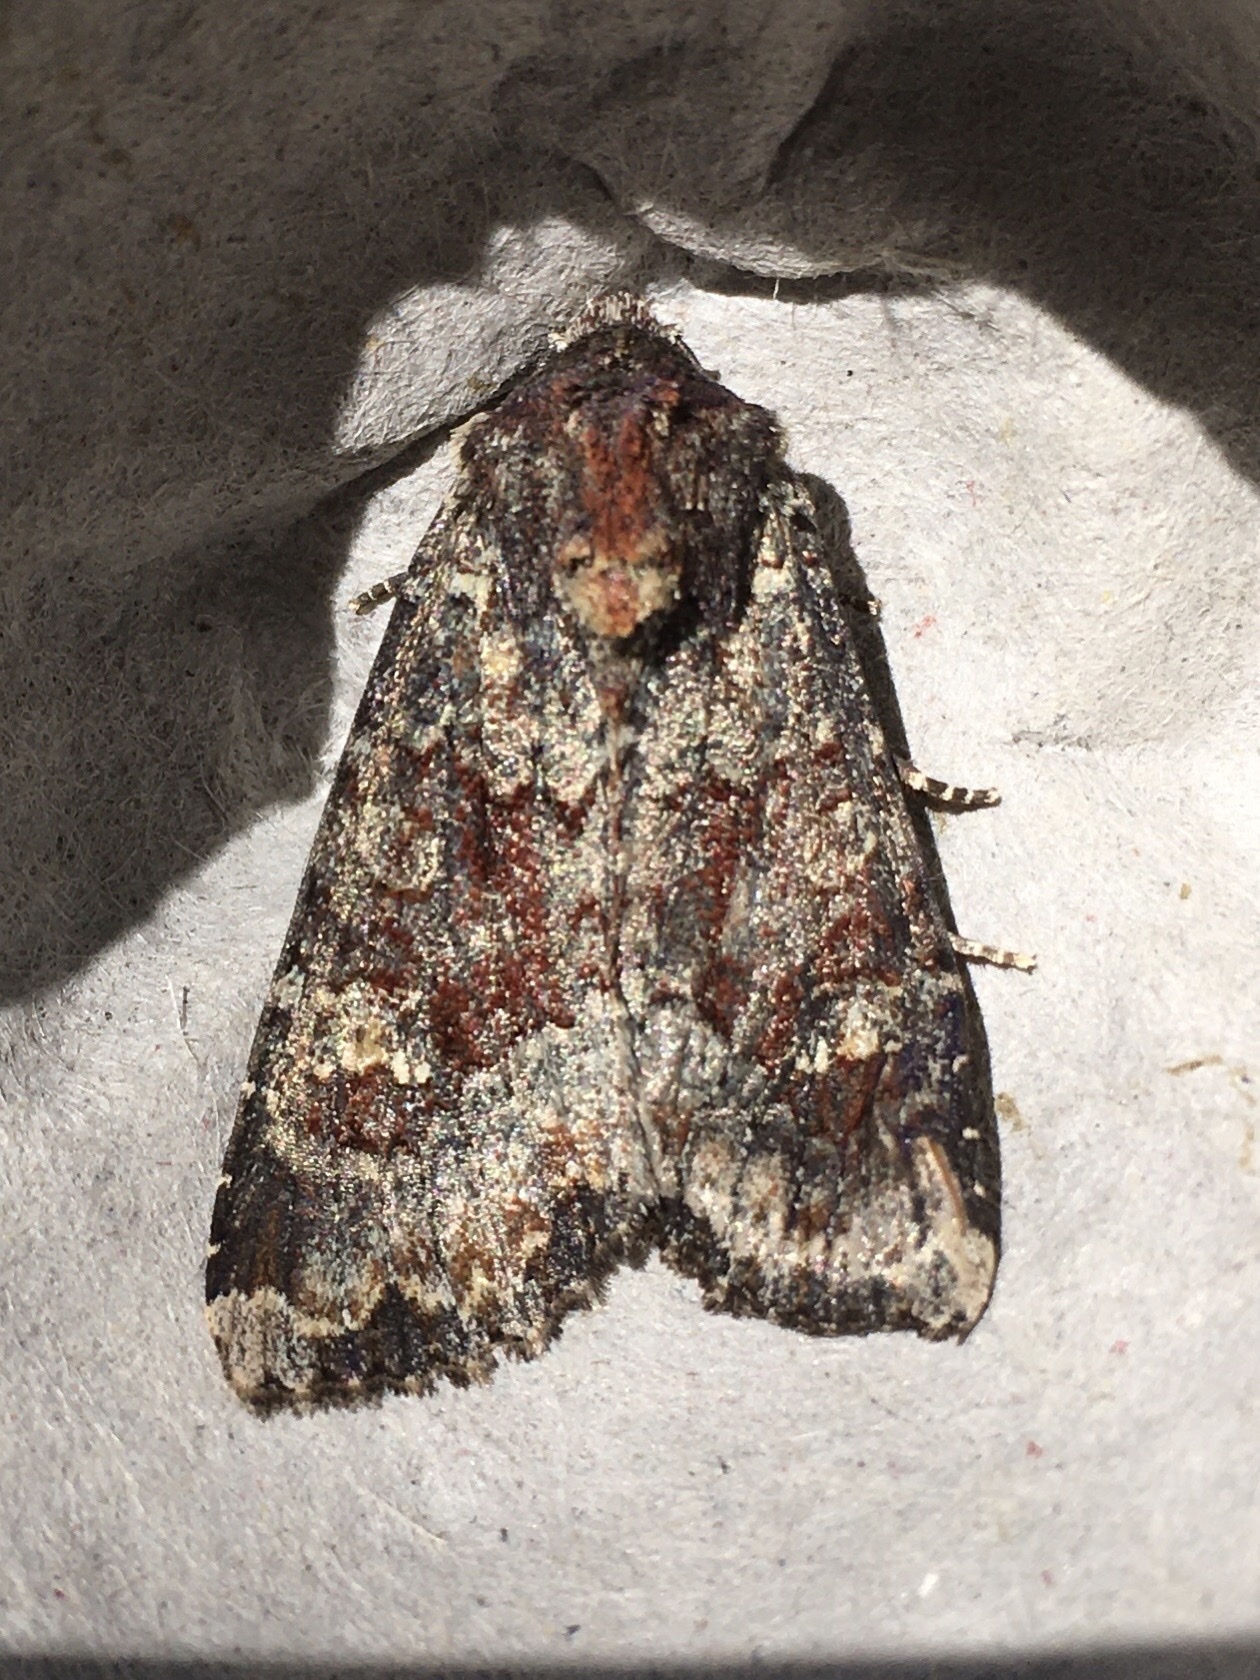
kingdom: Animalia
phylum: Arthropoda
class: Insecta
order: Lepidoptera
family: Noctuidae
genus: Apamea
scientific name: Apamea amputatrix
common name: Yellow-headed cutworm moth
